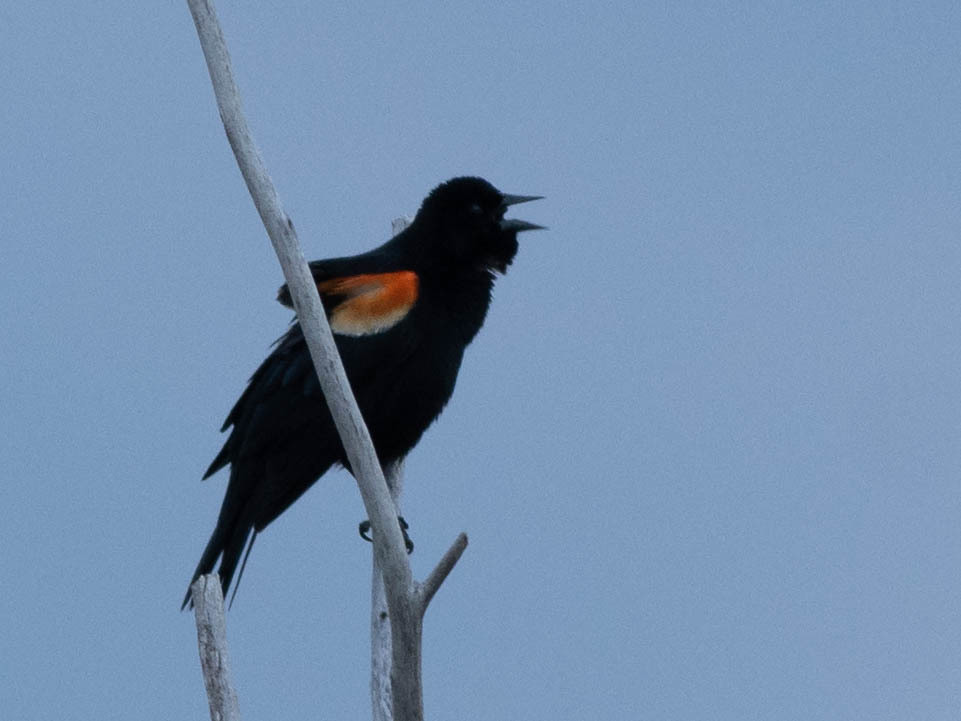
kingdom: Animalia
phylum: Chordata
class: Aves
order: Passeriformes
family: Icteridae
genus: Agelaius
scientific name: Agelaius phoeniceus
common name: Red-winged blackbird
